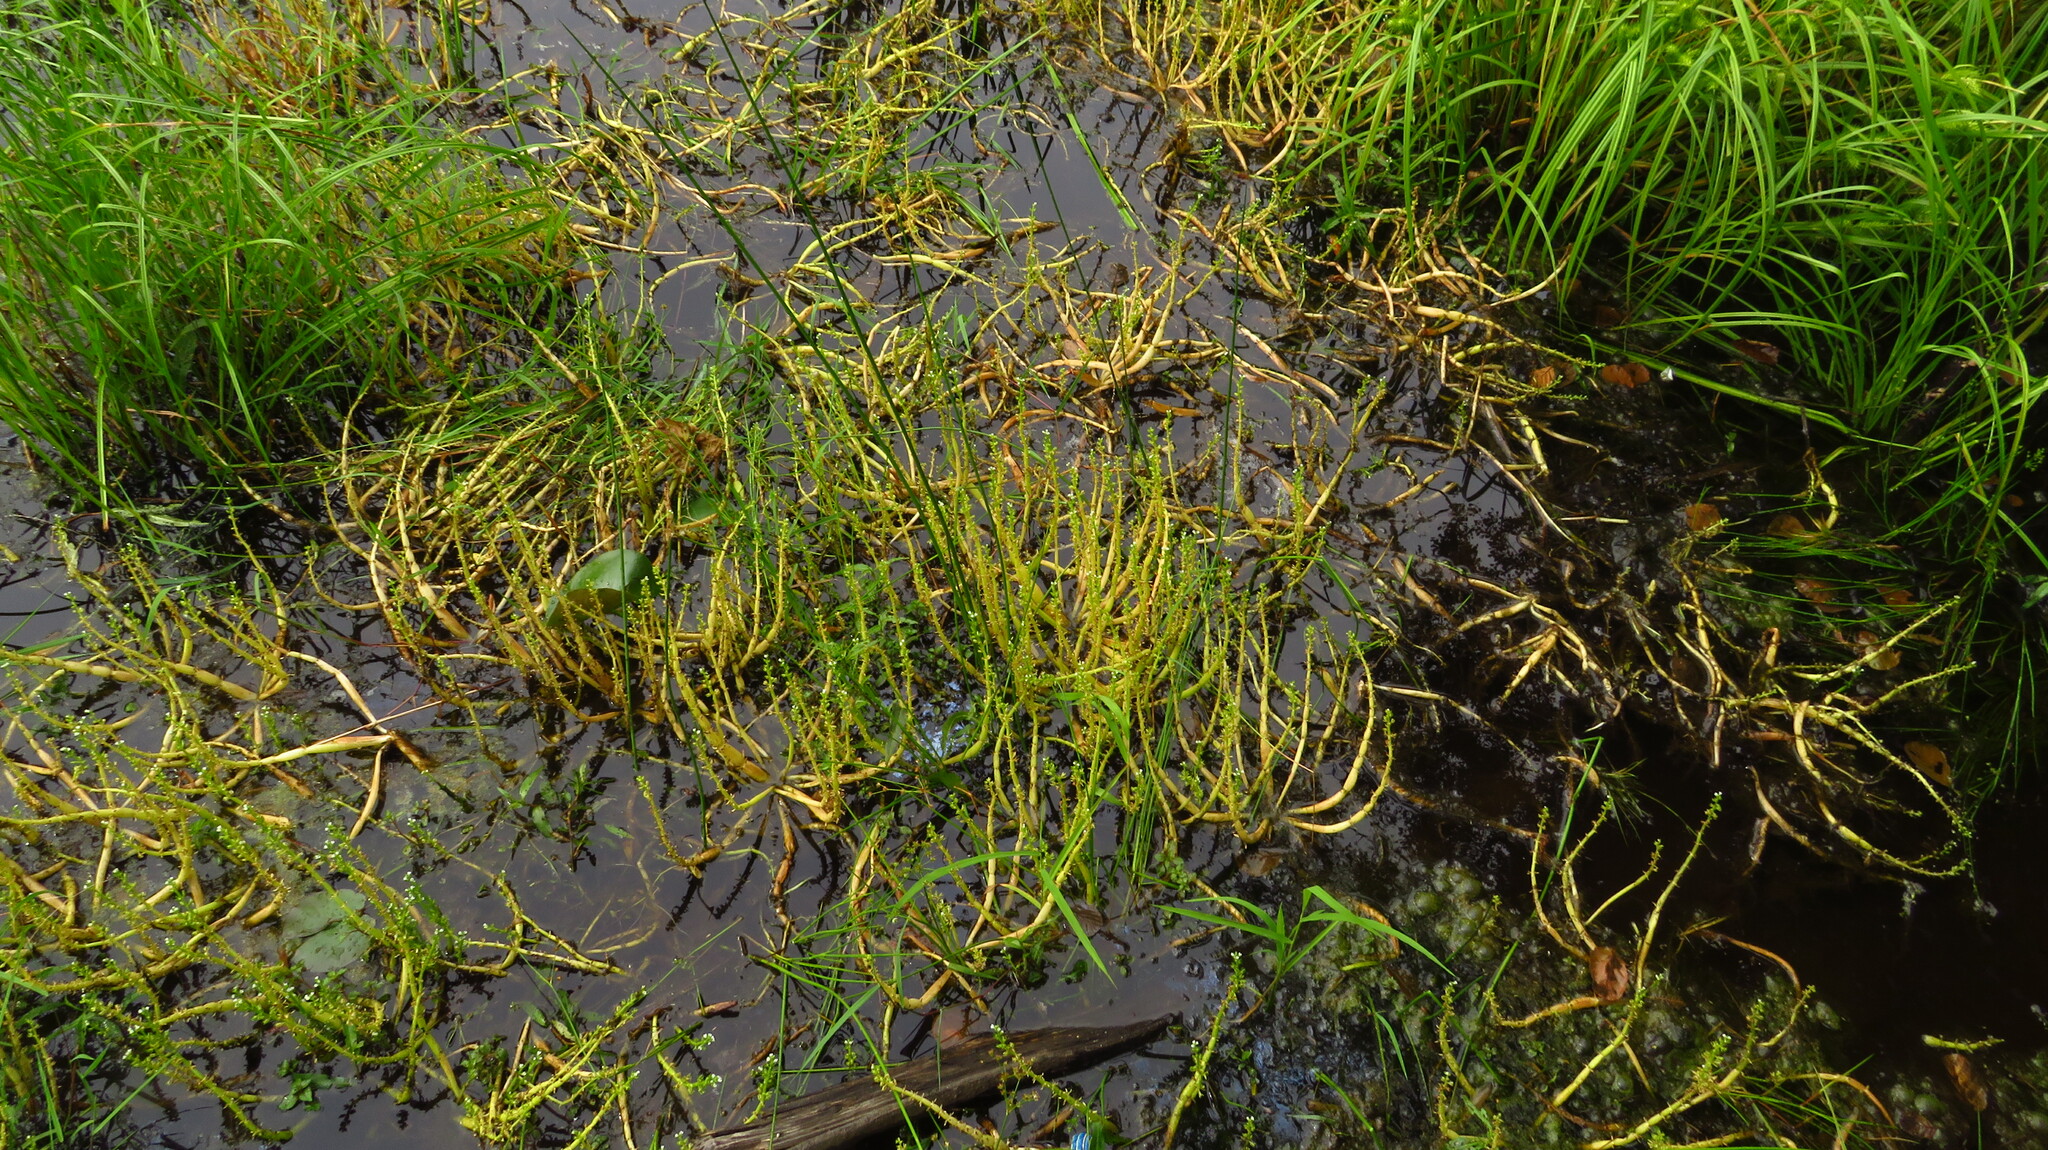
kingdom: Plantae
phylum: Tracheophyta
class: Magnoliopsida
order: Ericales
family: Primulaceae
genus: Hottonia
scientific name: Hottonia inflata
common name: American featherfoil
